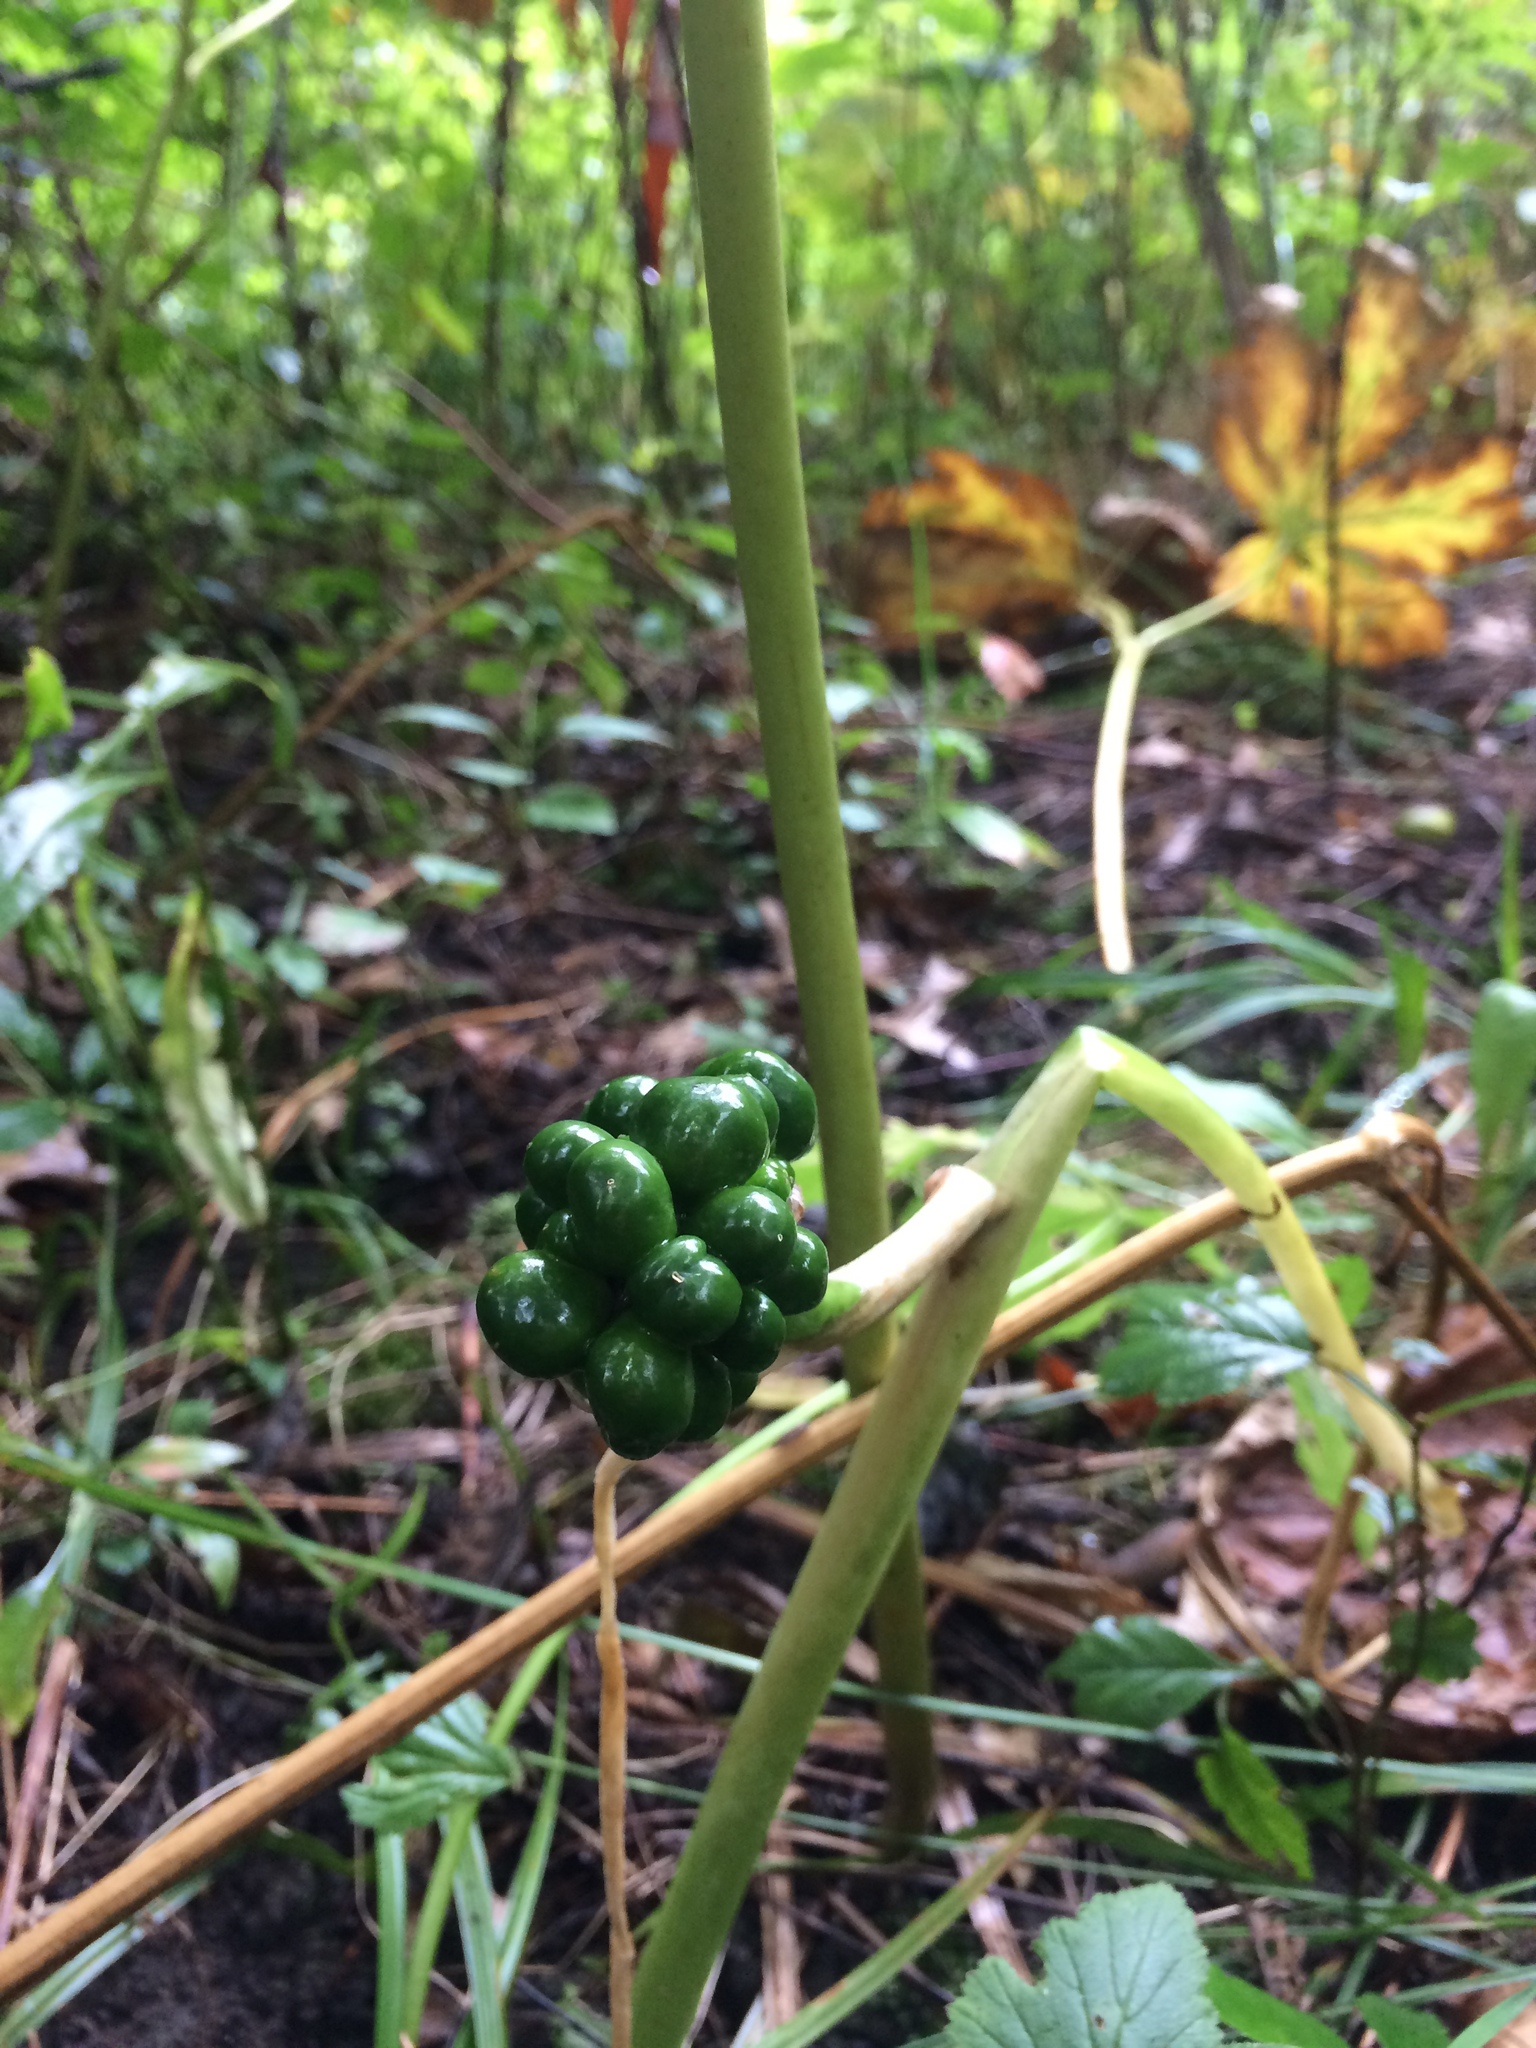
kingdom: Plantae
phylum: Tracheophyta
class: Liliopsida
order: Alismatales
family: Araceae
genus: Arisaema
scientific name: Arisaema triphyllum
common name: Jack-in-the-pulpit
